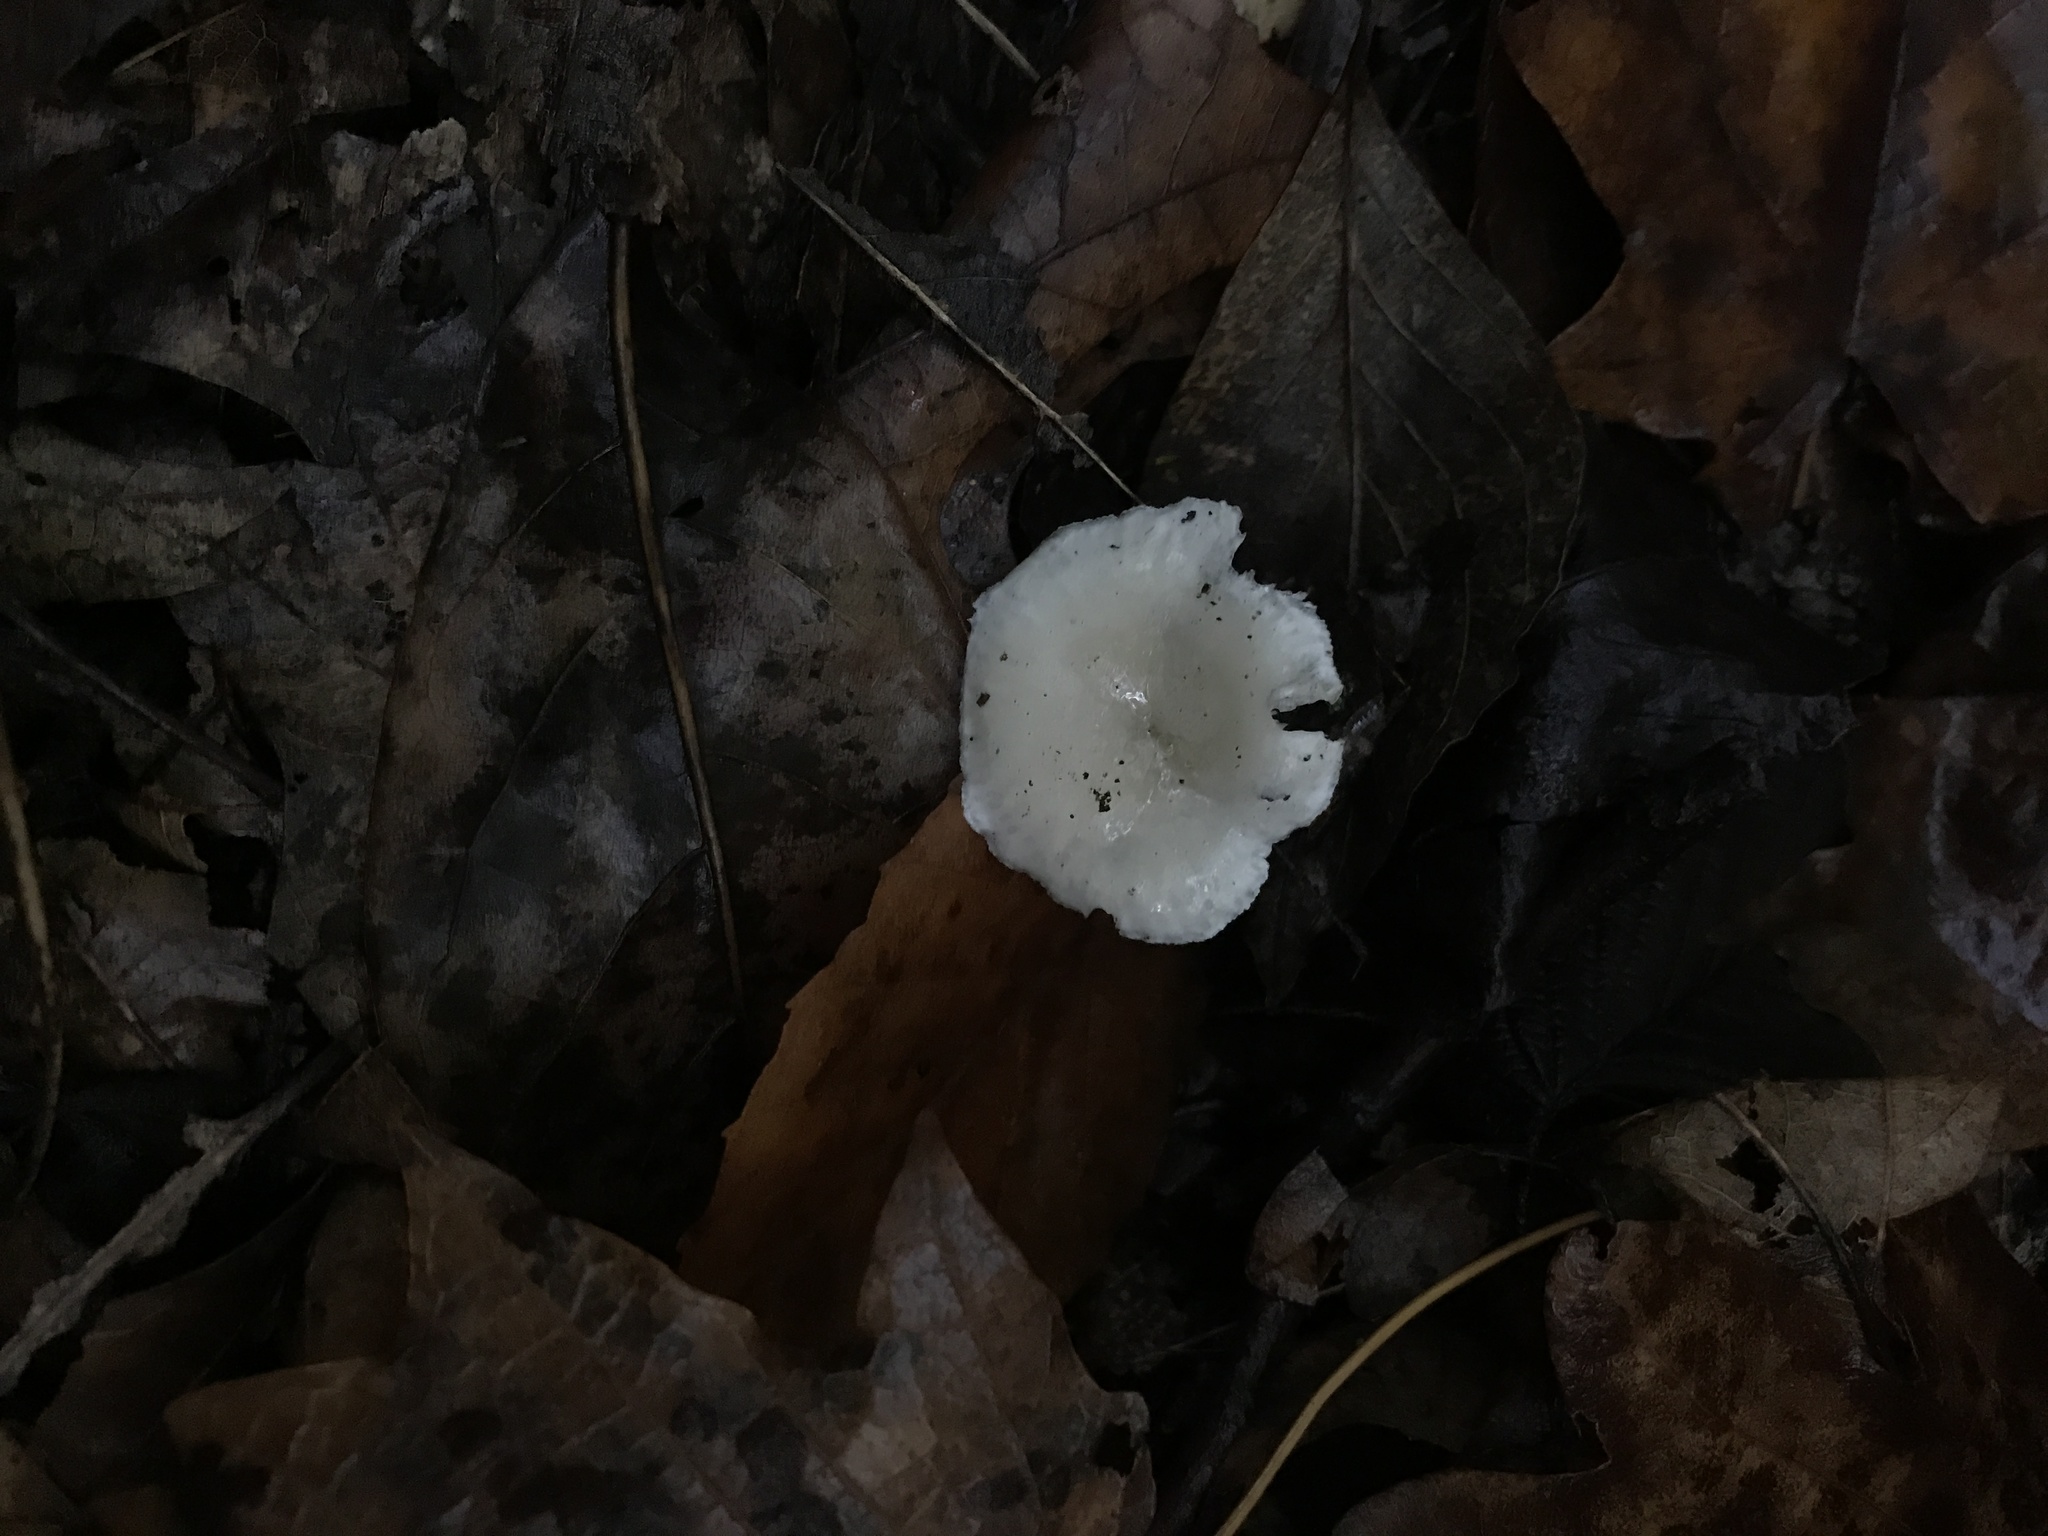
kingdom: Fungi
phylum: Basidiomycota
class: Agaricomycetes
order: Agaricales
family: Tricholomataceae
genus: Infundibulicybe
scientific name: Infundibulicybe gibba
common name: Common funnel
